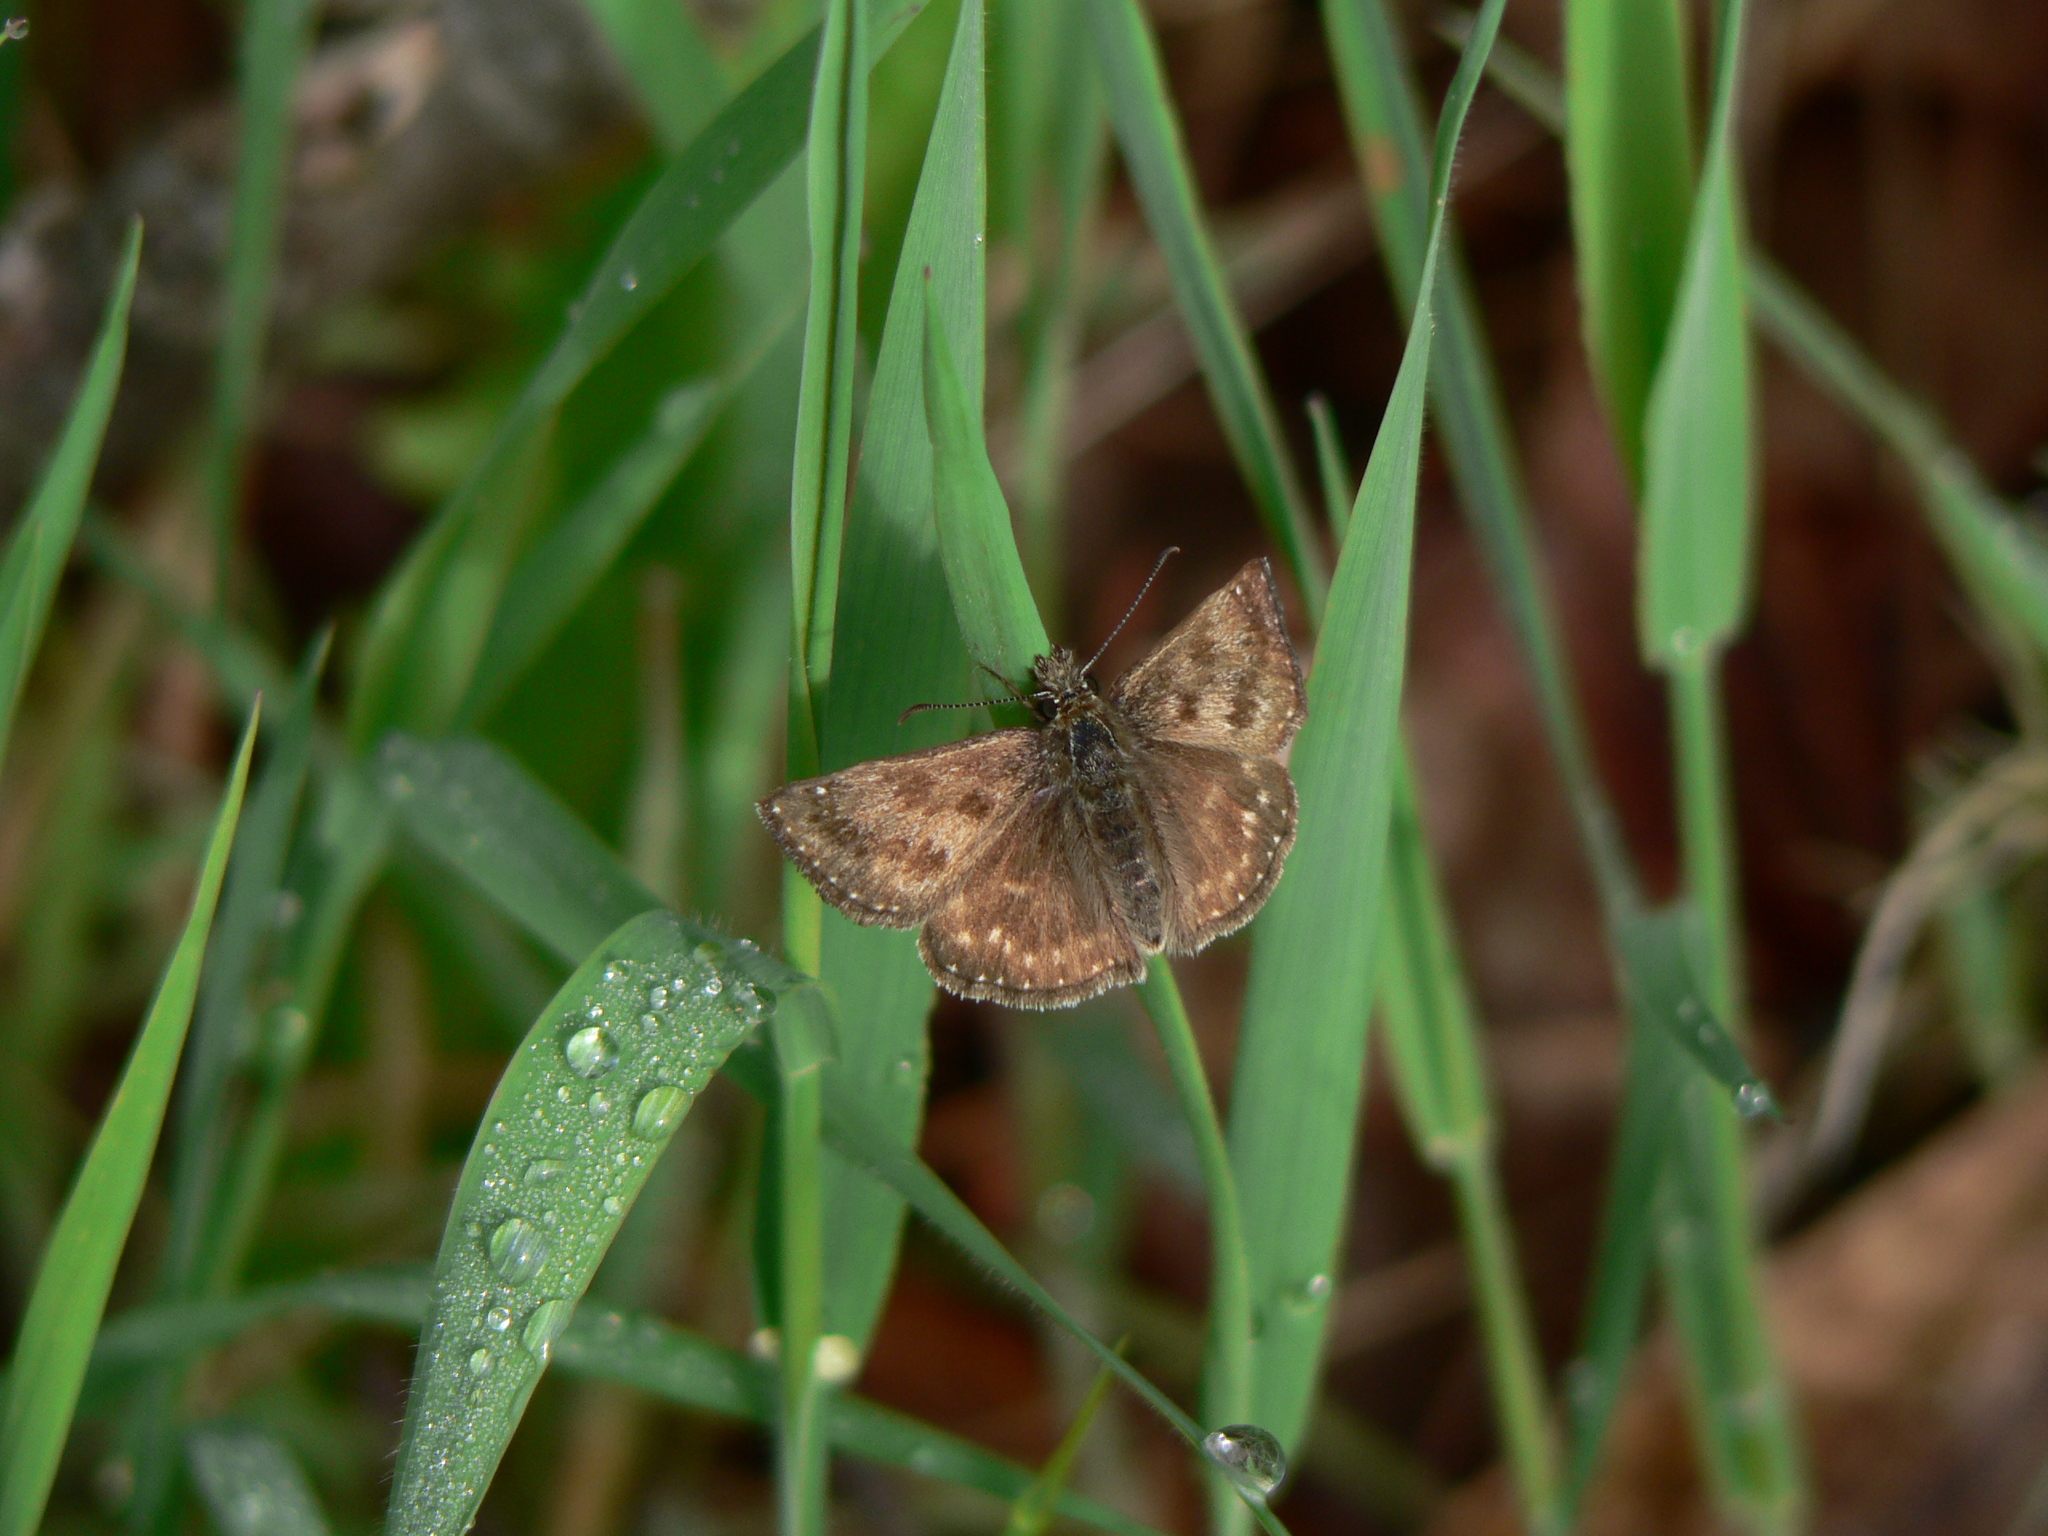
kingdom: Animalia
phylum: Arthropoda
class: Insecta
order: Lepidoptera
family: Hesperiidae
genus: Erynnis
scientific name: Erynnis tages
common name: Dingy skipper
